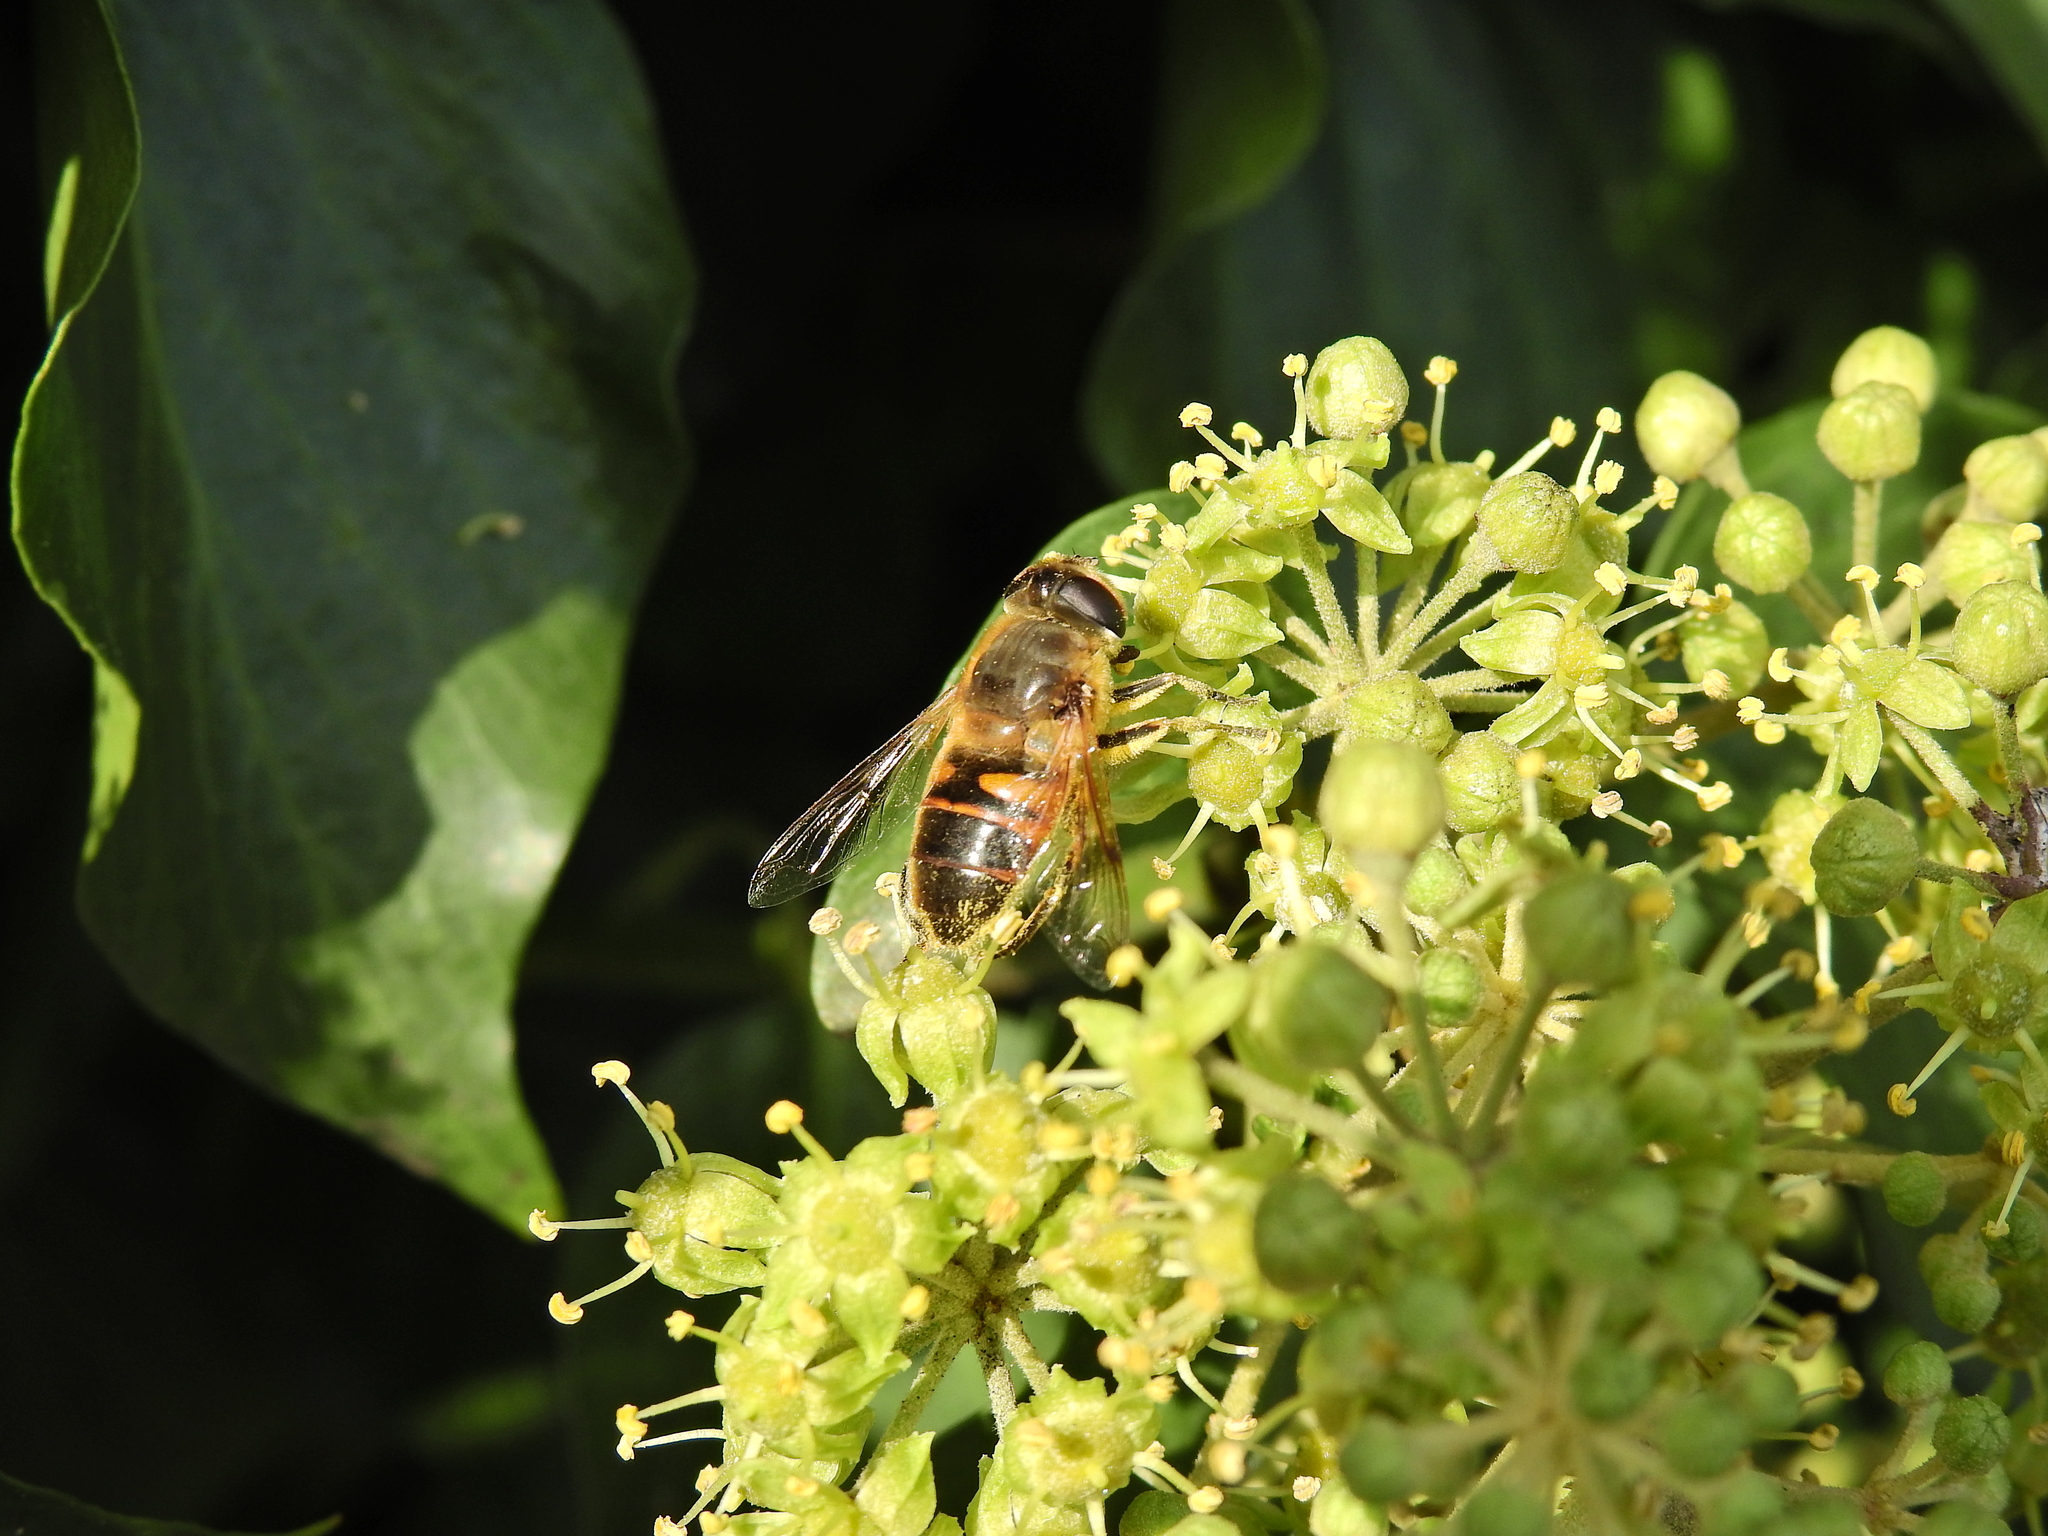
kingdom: Animalia
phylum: Arthropoda
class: Insecta
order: Diptera
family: Syrphidae
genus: Eristalis
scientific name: Eristalis tenax
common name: Drone fly
